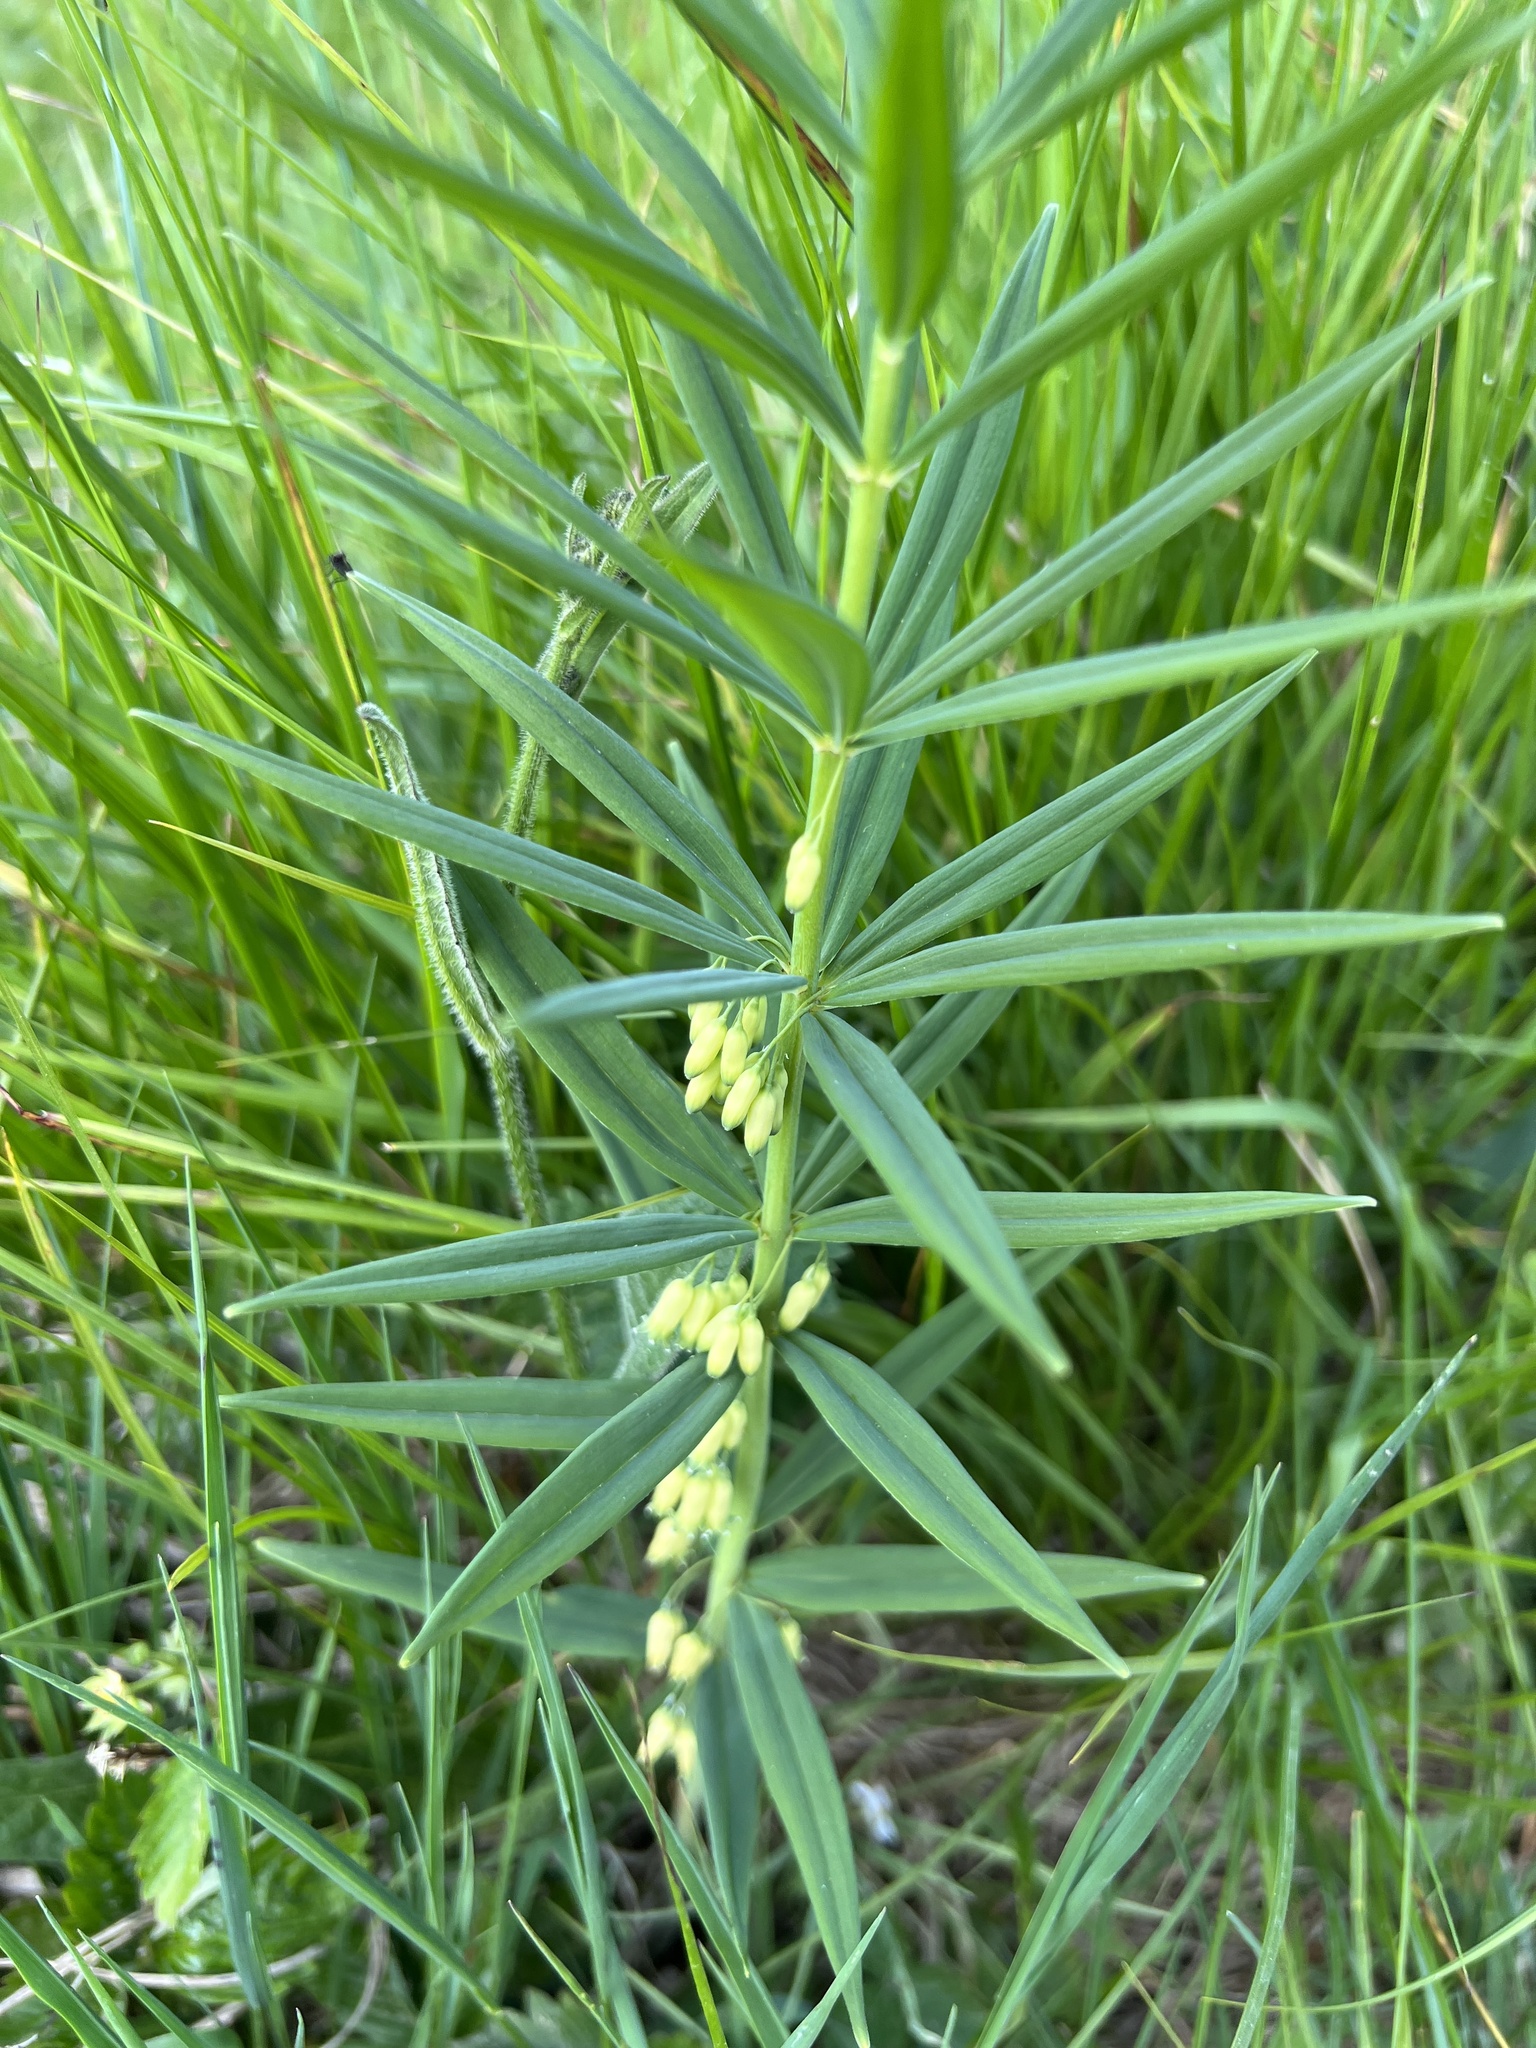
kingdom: Plantae
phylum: Tracheophyta
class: Liliopsida
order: Asparagales
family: Asparagaceae
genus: Polygonatum
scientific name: Polygonatum verticillatum
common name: Whorled solomon's-seal
